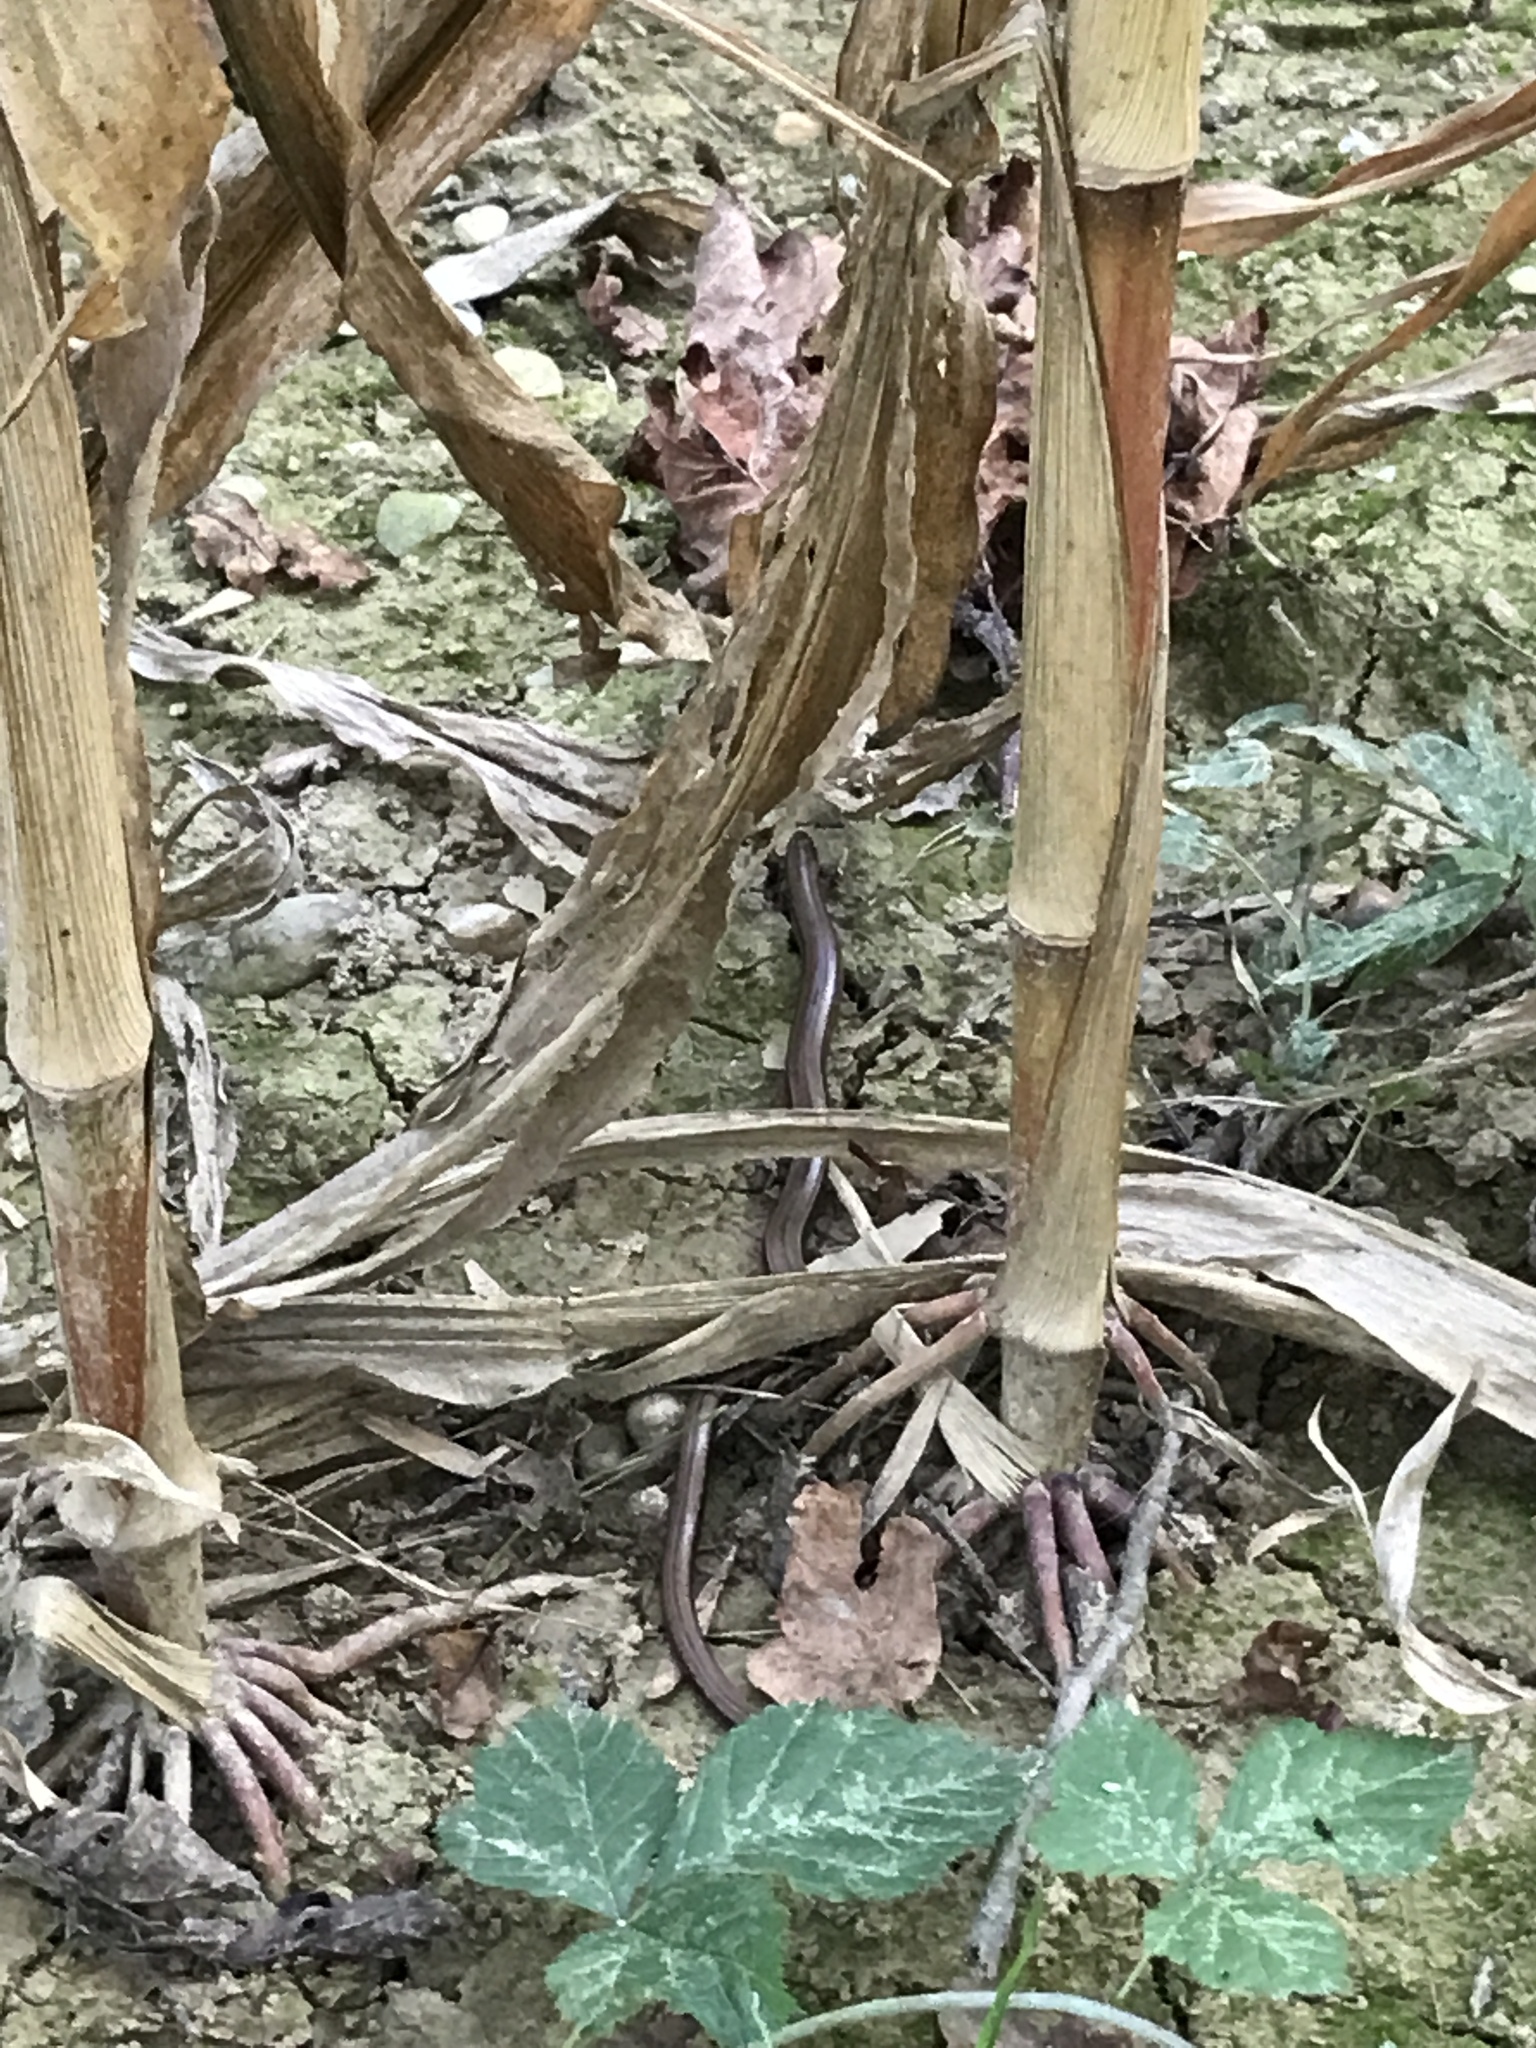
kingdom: Animalia
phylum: Chordata
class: Squamata
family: Anguidae
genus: Anguis
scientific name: Anguis fragilis
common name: Slow worm
